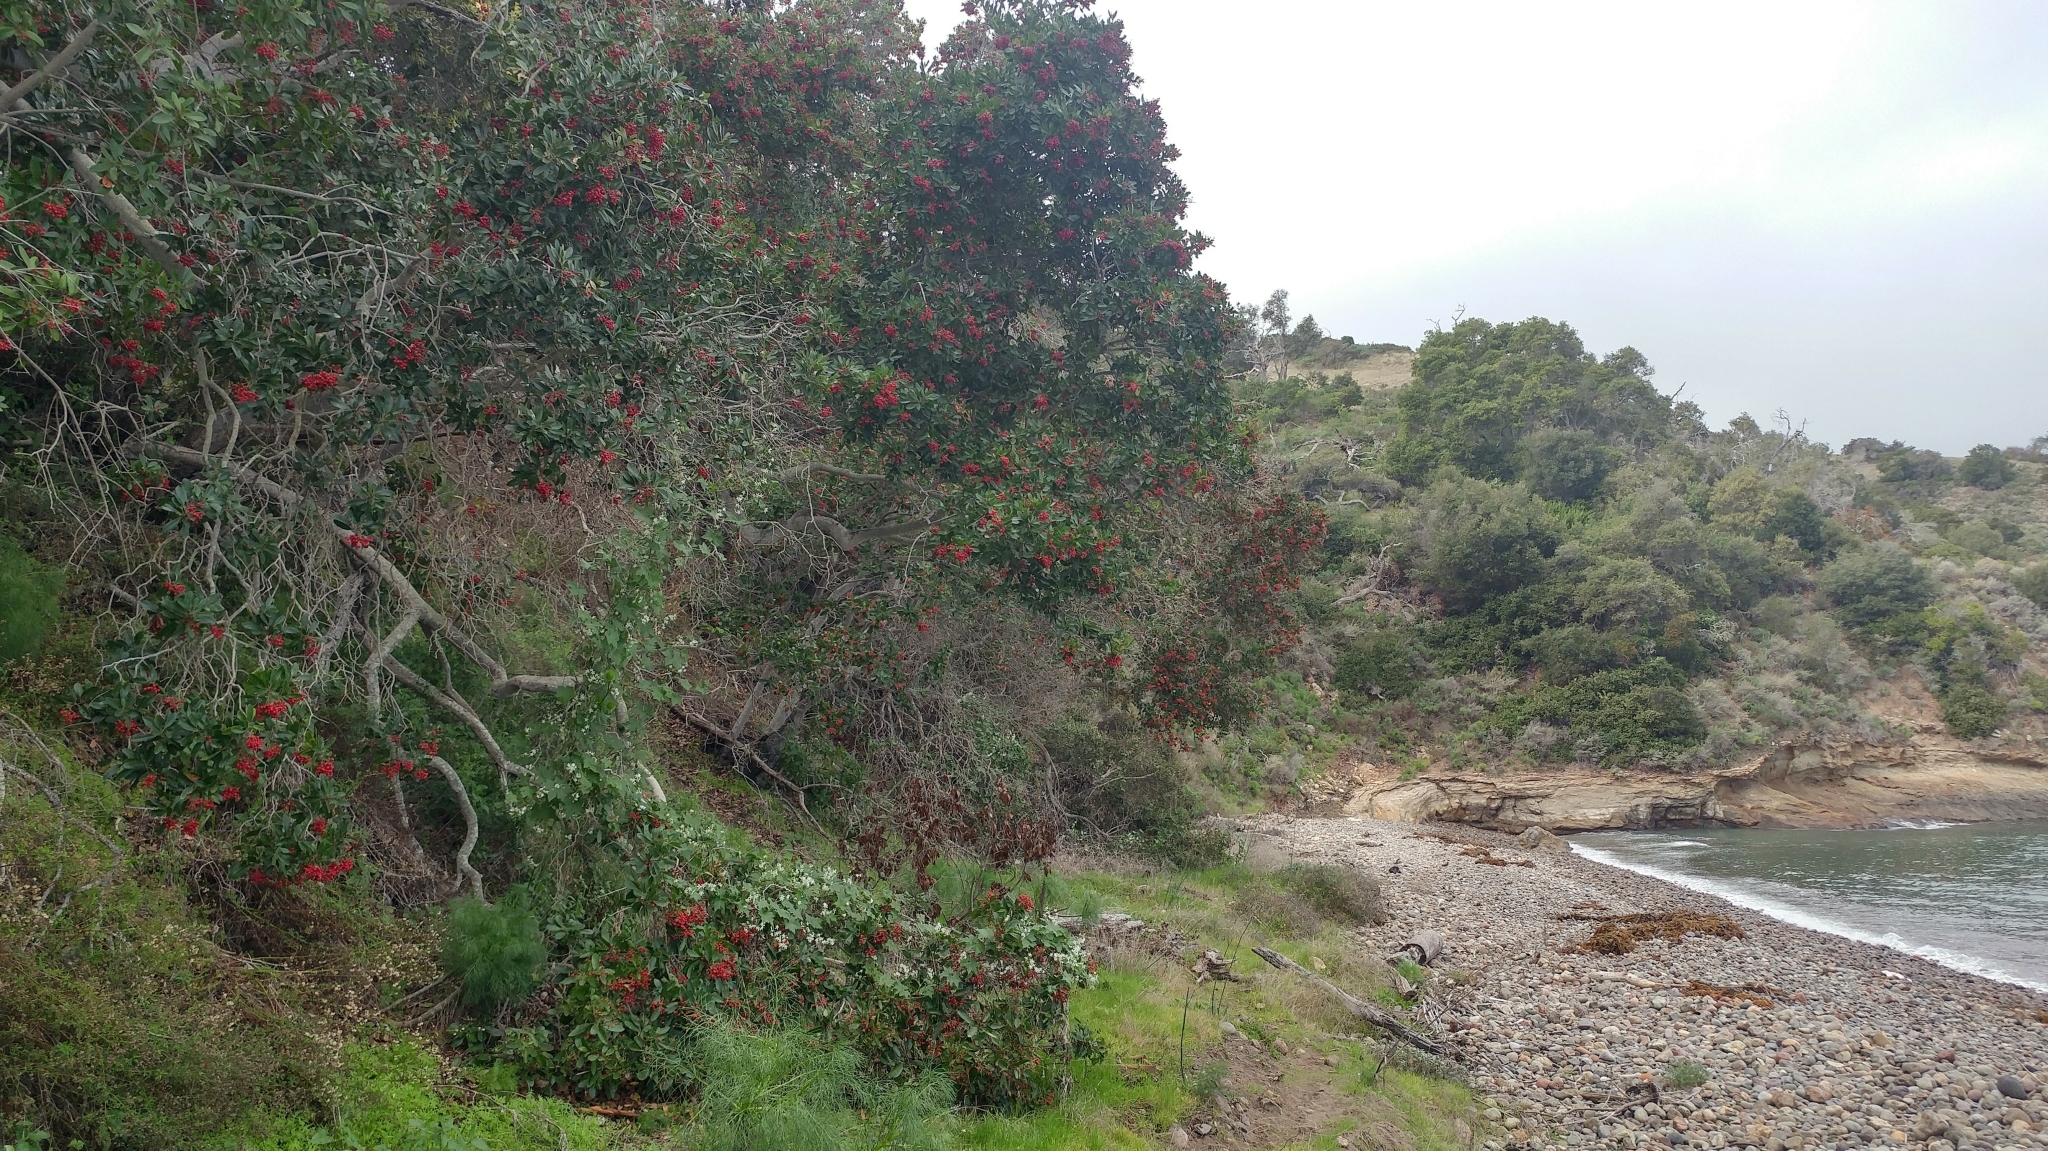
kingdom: Plantae
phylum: Tracheophyta
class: Magnoliopsida
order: Rosales
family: Rosaceae
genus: Heteromeles
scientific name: Heteromeles arbutifolia
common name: California-holly
